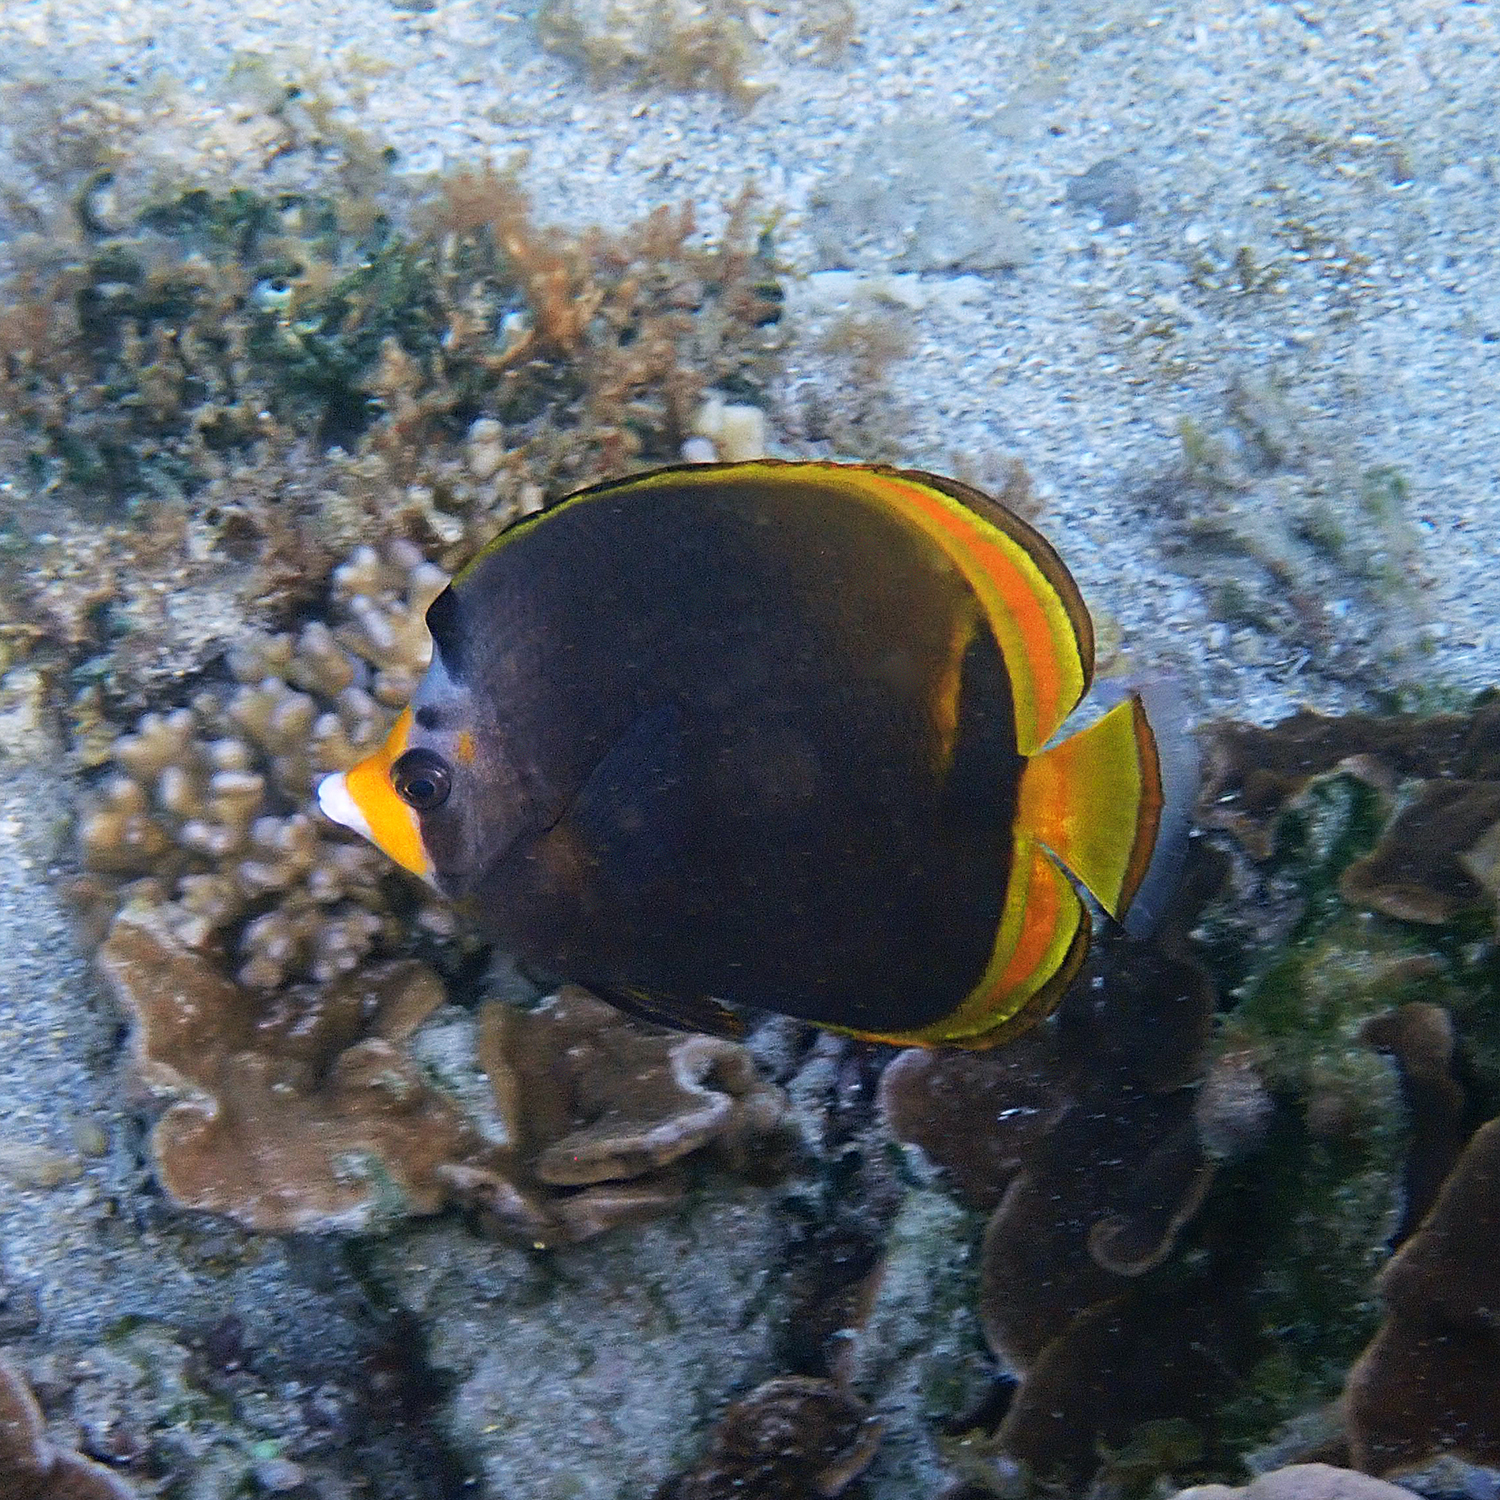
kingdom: Animalia
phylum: Chordata
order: Perciformes
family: Chaetodontidae
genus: Chaetodon
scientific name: Chaetodon flavirostris
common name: Black butterflyfish
